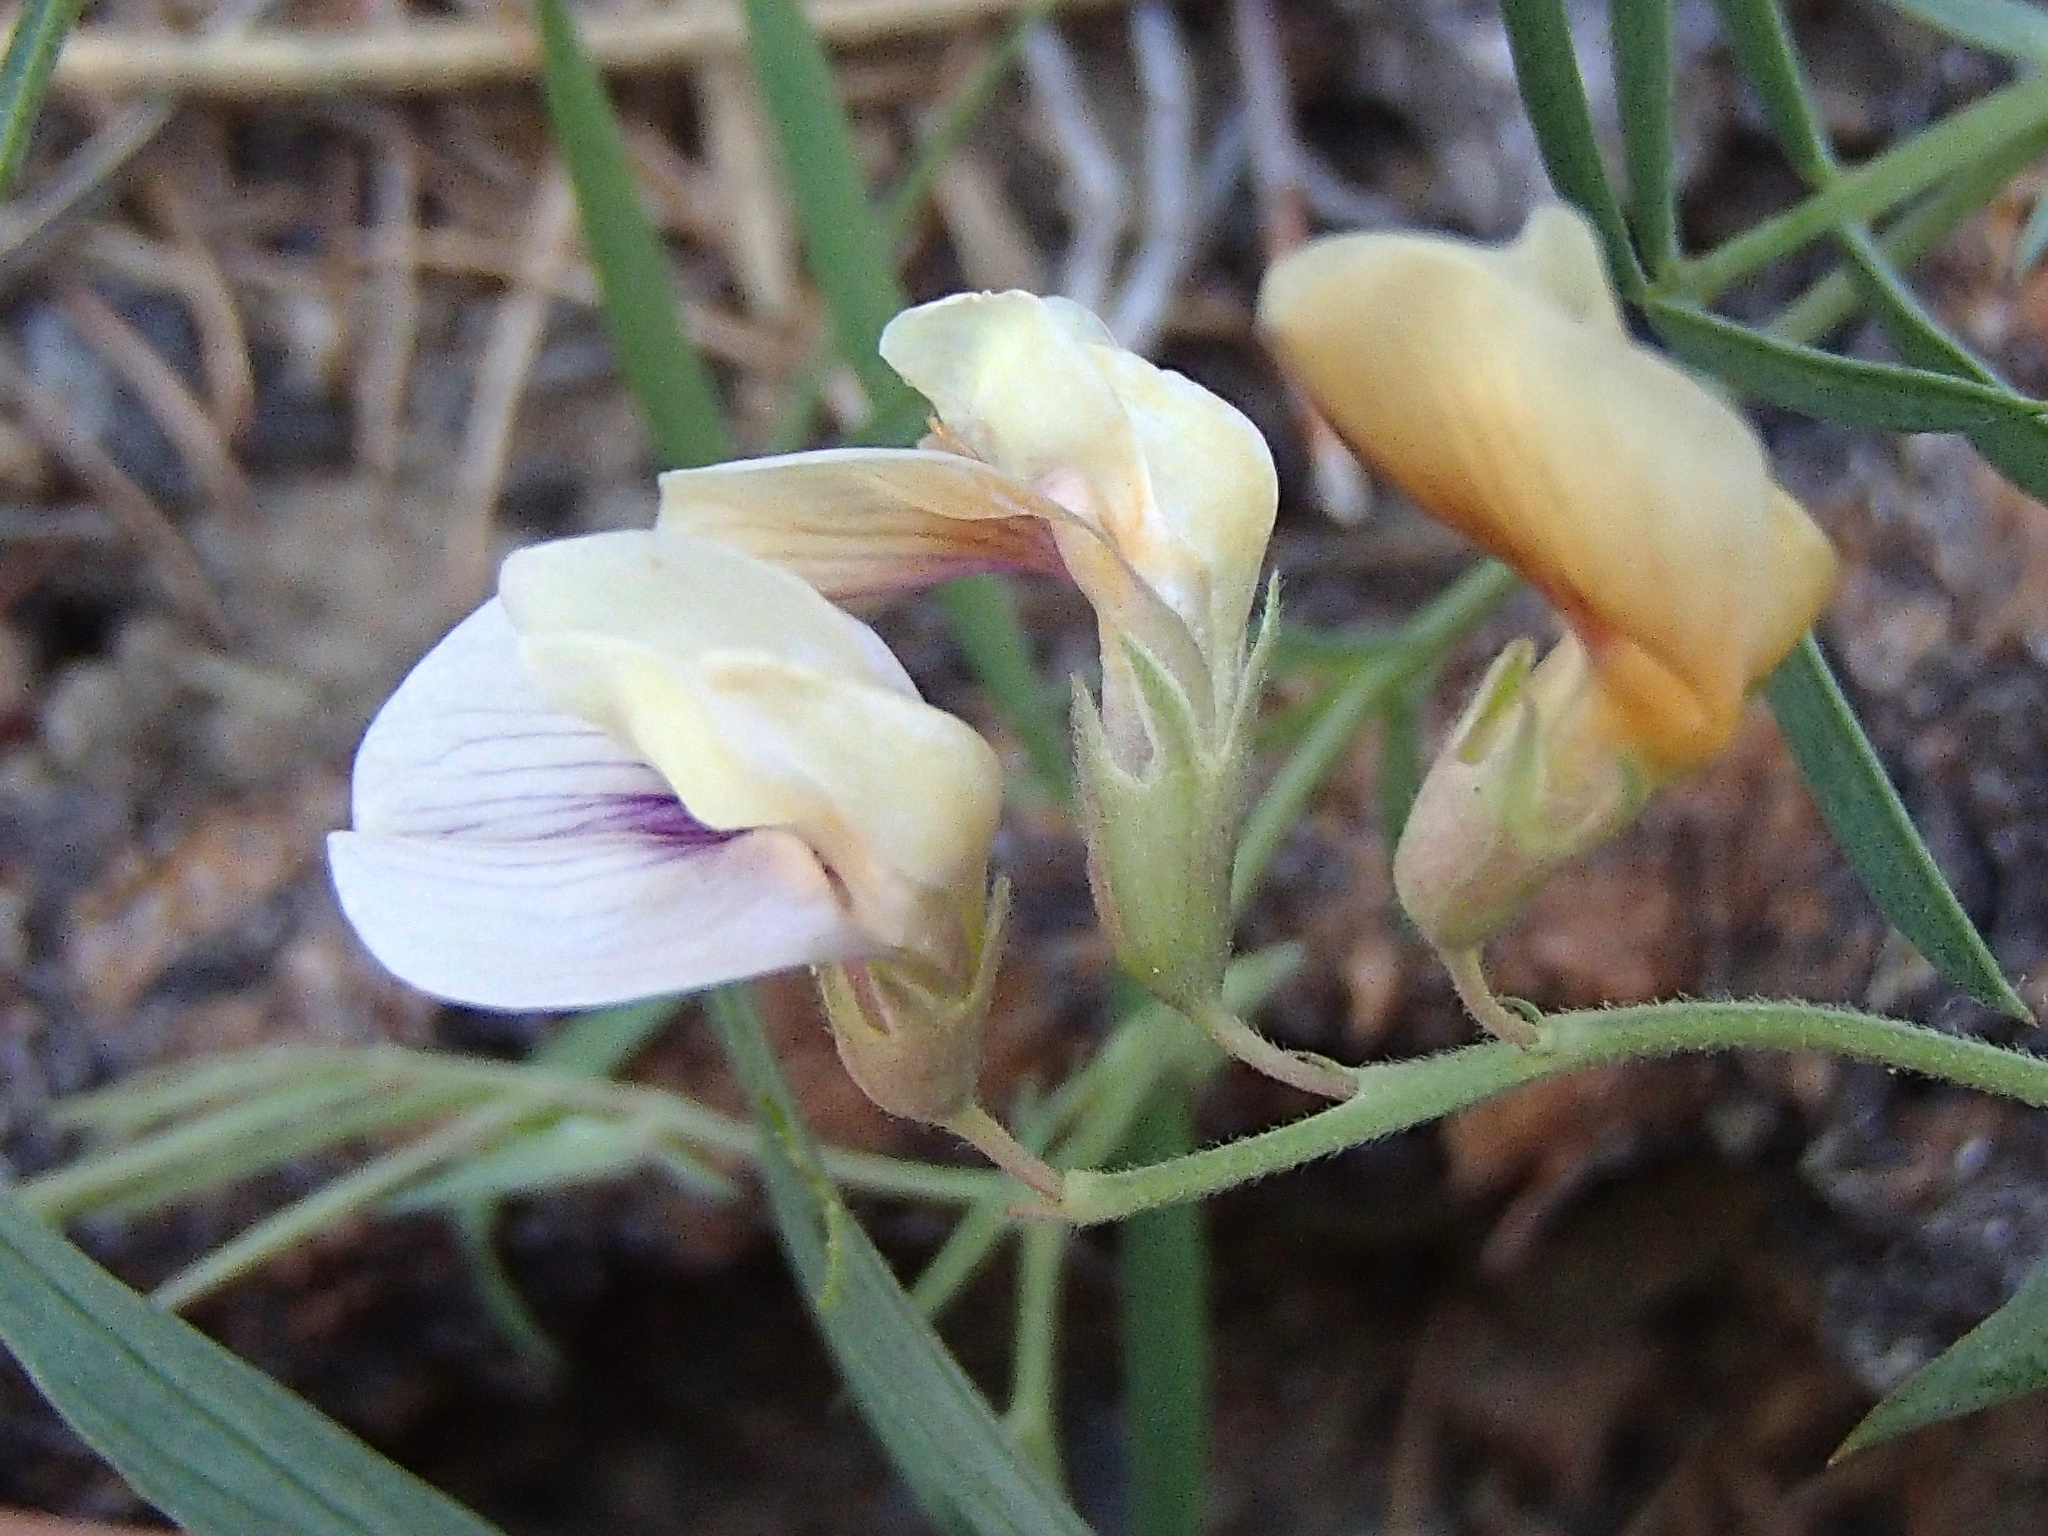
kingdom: Plantae
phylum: Tracheophyta
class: Magnoliopsida
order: Fabales
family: Fabaceae
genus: Lathyrus
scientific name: Lathyrus lanszwertii
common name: Lanszwert's vetchling
